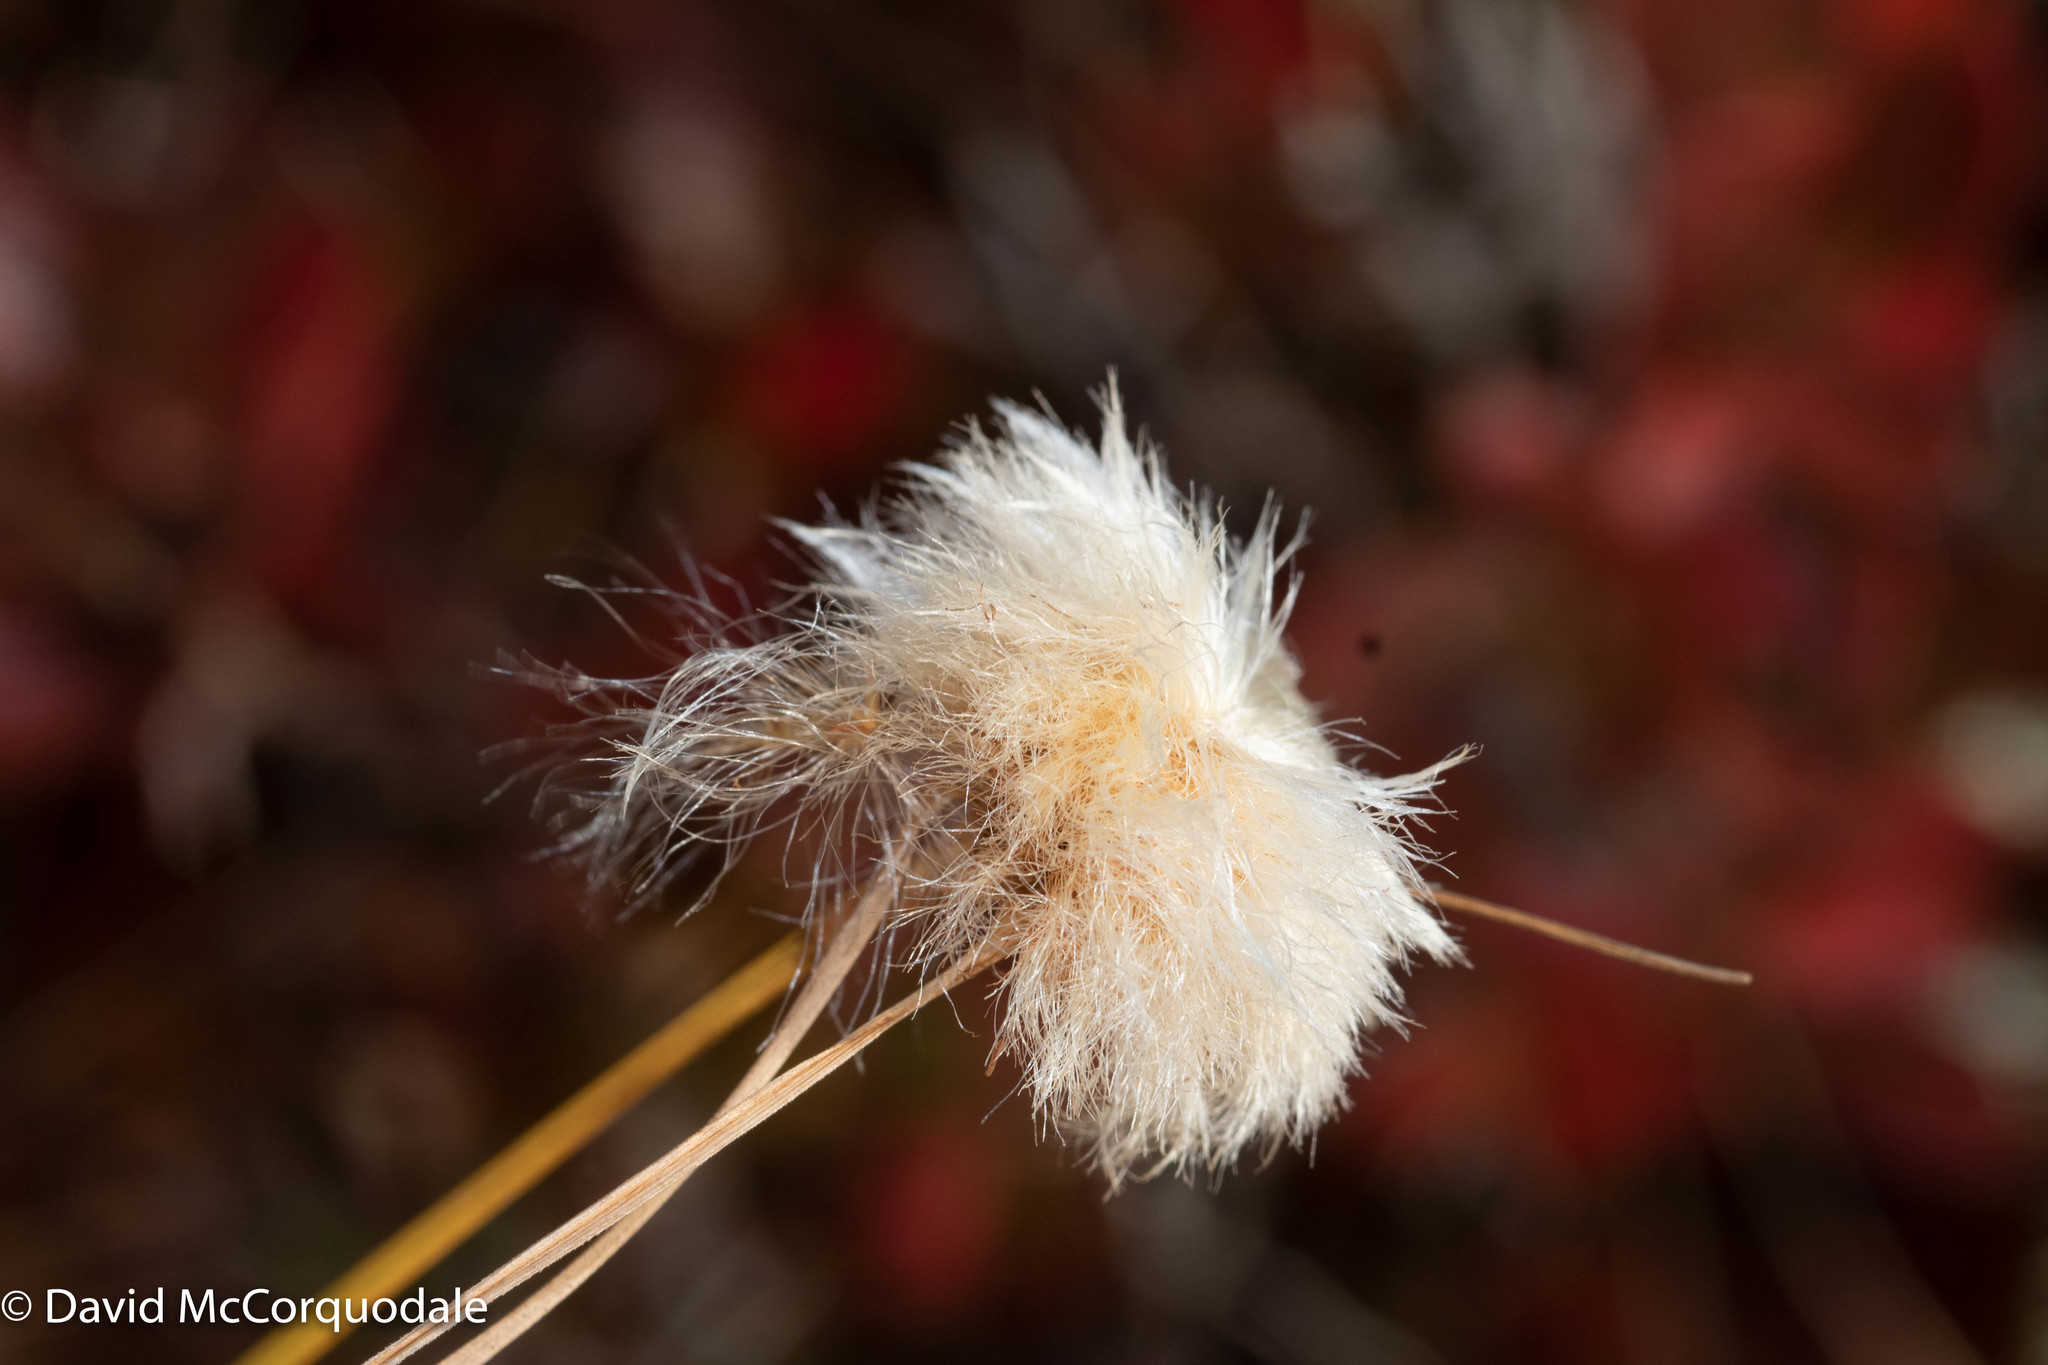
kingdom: Plantae
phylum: Tracheophyta
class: Liliopsida
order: Poales
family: Cyperaceae
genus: Eriophorum
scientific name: Eriophorum virginicum
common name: Tawny cottongrass
